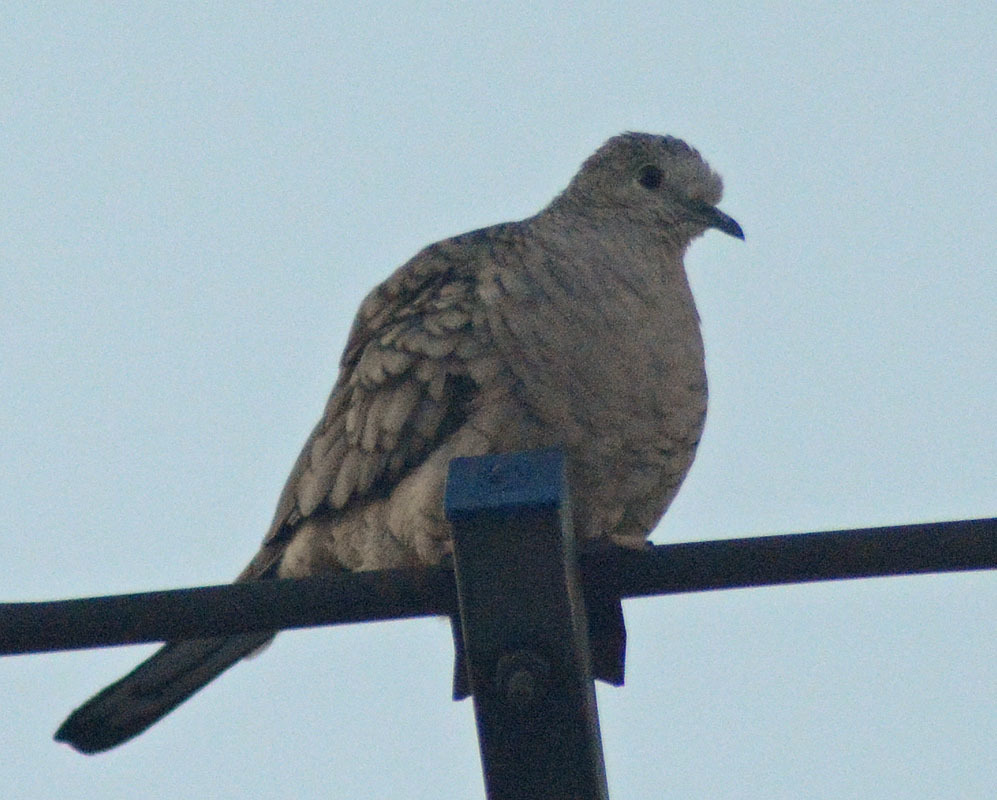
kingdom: Animalia
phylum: Chordata
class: Aves
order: Columbiformes
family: Columbidae
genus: Columbina
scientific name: Columbina inca
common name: Inca dove
